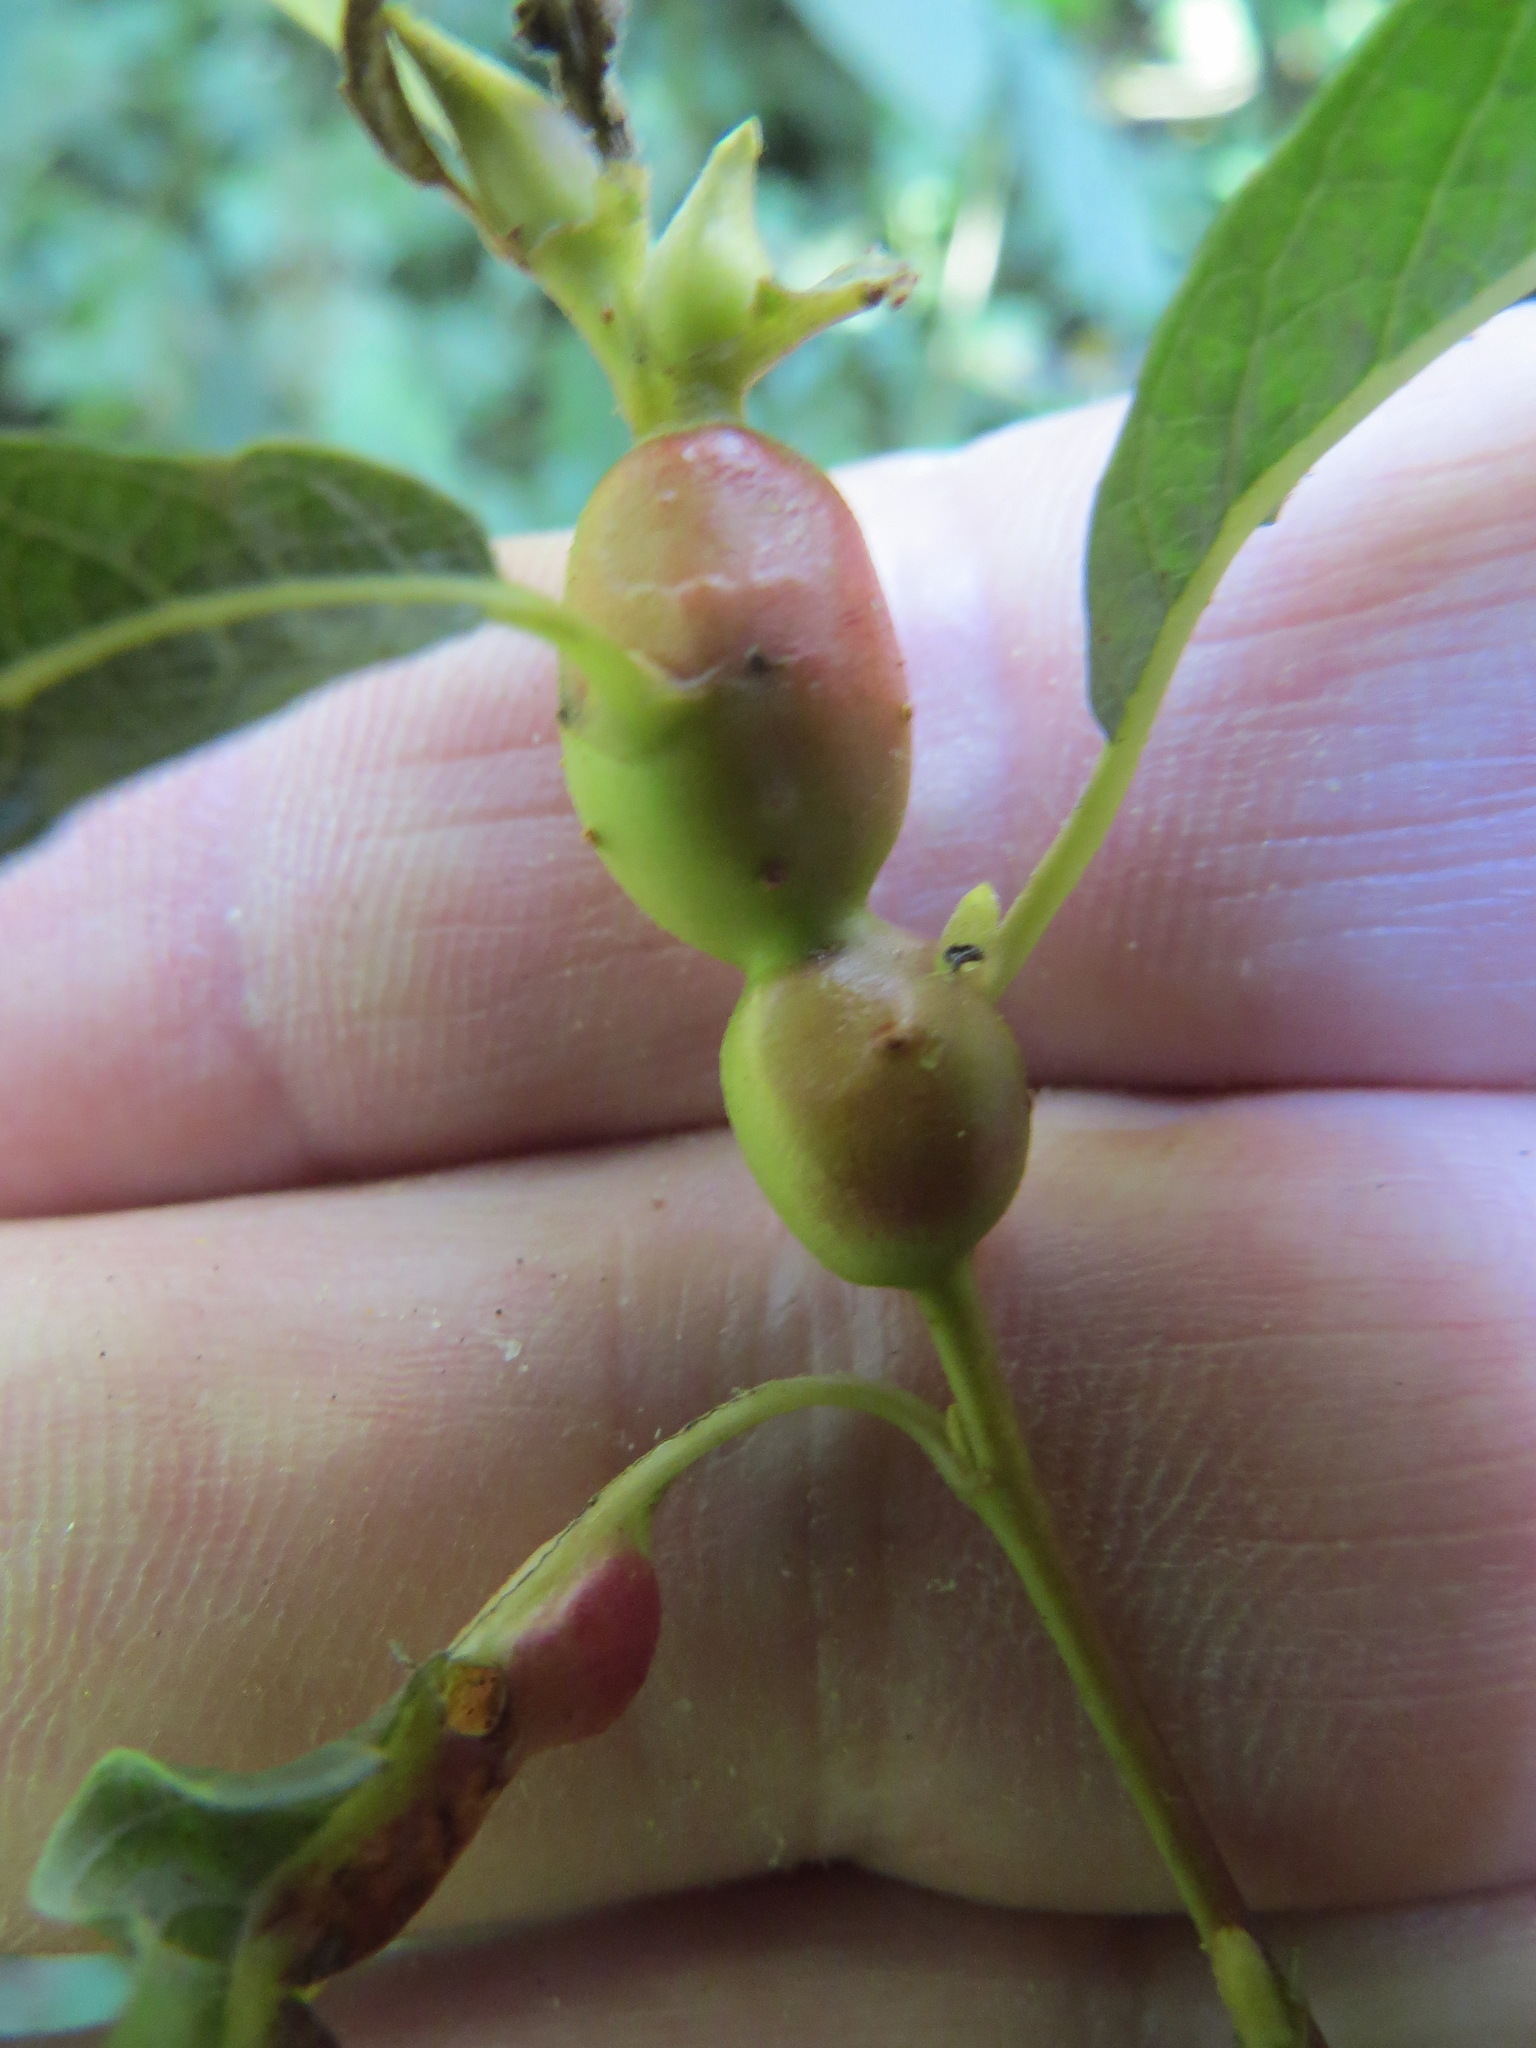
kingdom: Animalia
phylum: Arthropoda
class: Insecta
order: Diptera
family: Cecidomyiidae
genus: Rabdophaga
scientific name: Rabdophaga salicisbatatas
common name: Potato gall midge
